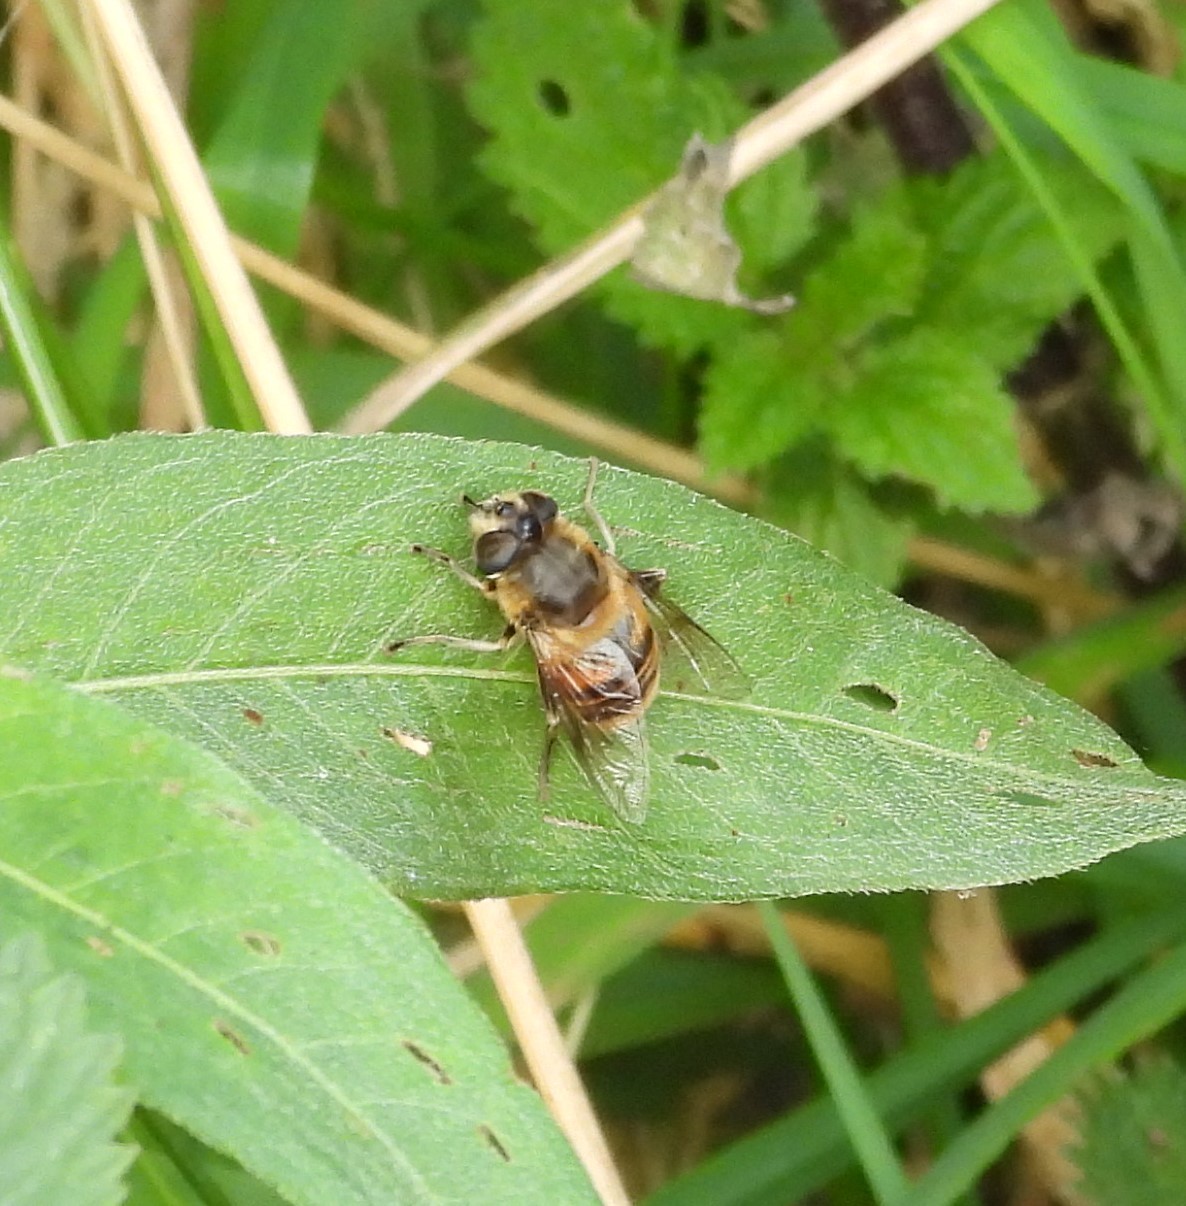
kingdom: Animalia
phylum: Arthropoda
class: Insecta
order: Diptera
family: Syrphidae
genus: Eristalis
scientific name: Eristalis tenax
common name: Drone fly
